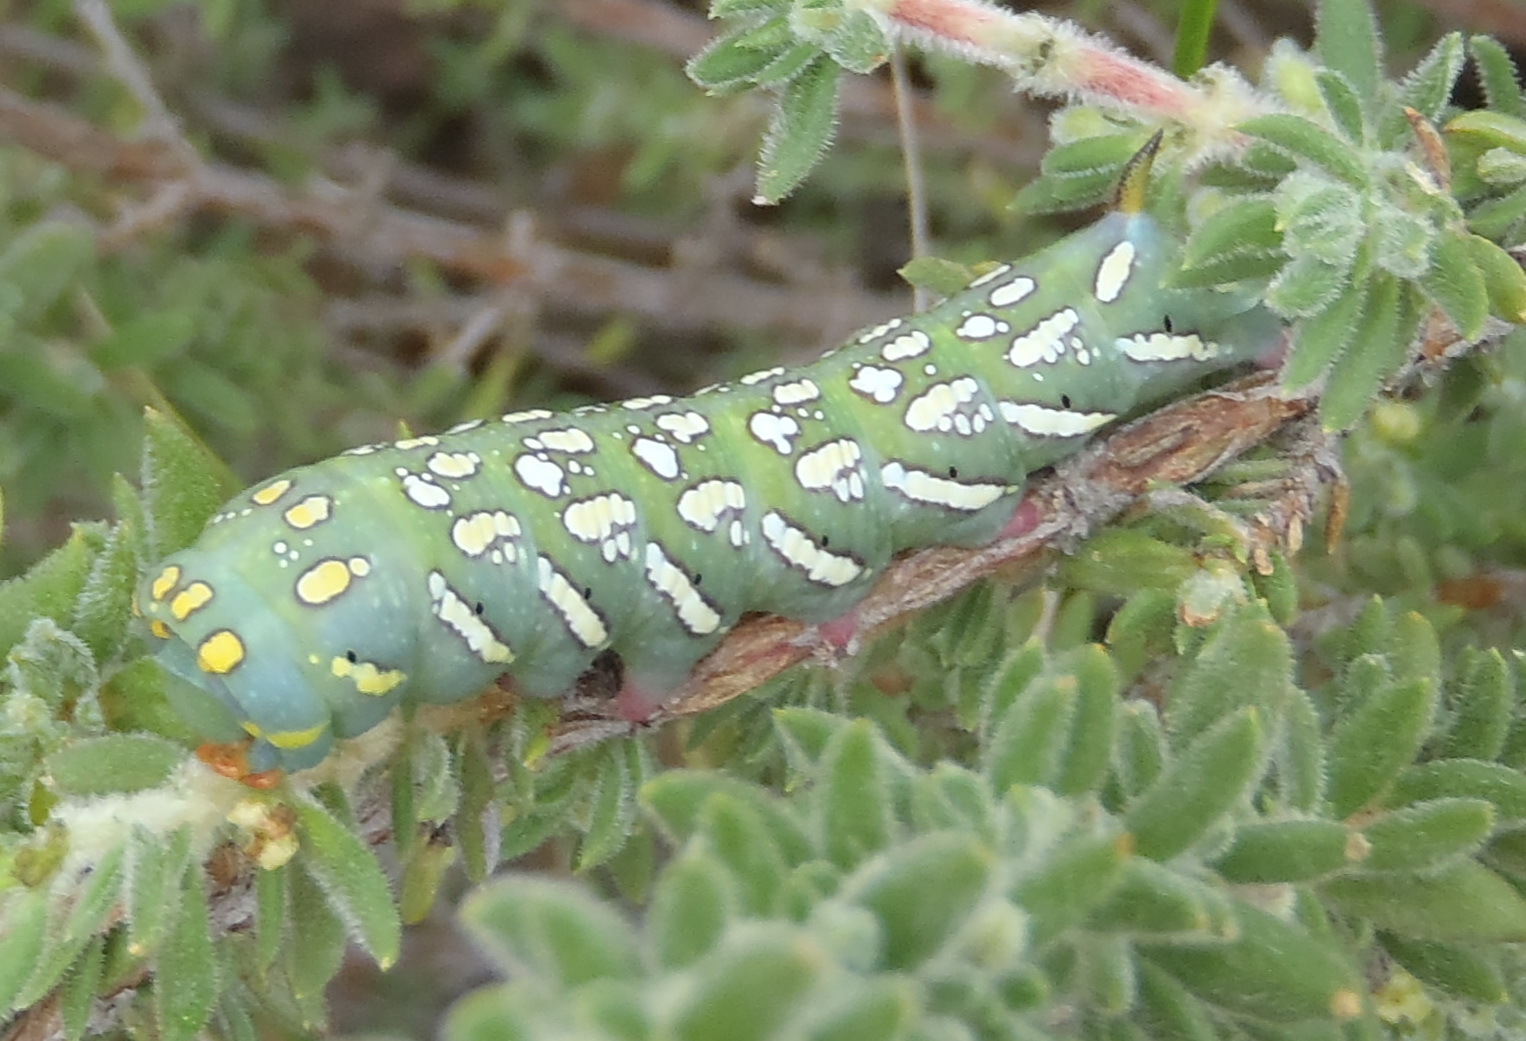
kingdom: Animalia
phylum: Arthropoda
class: Insecta
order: Lepidoptera
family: Sphingidae
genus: Temnora
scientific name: Temnora pylas
